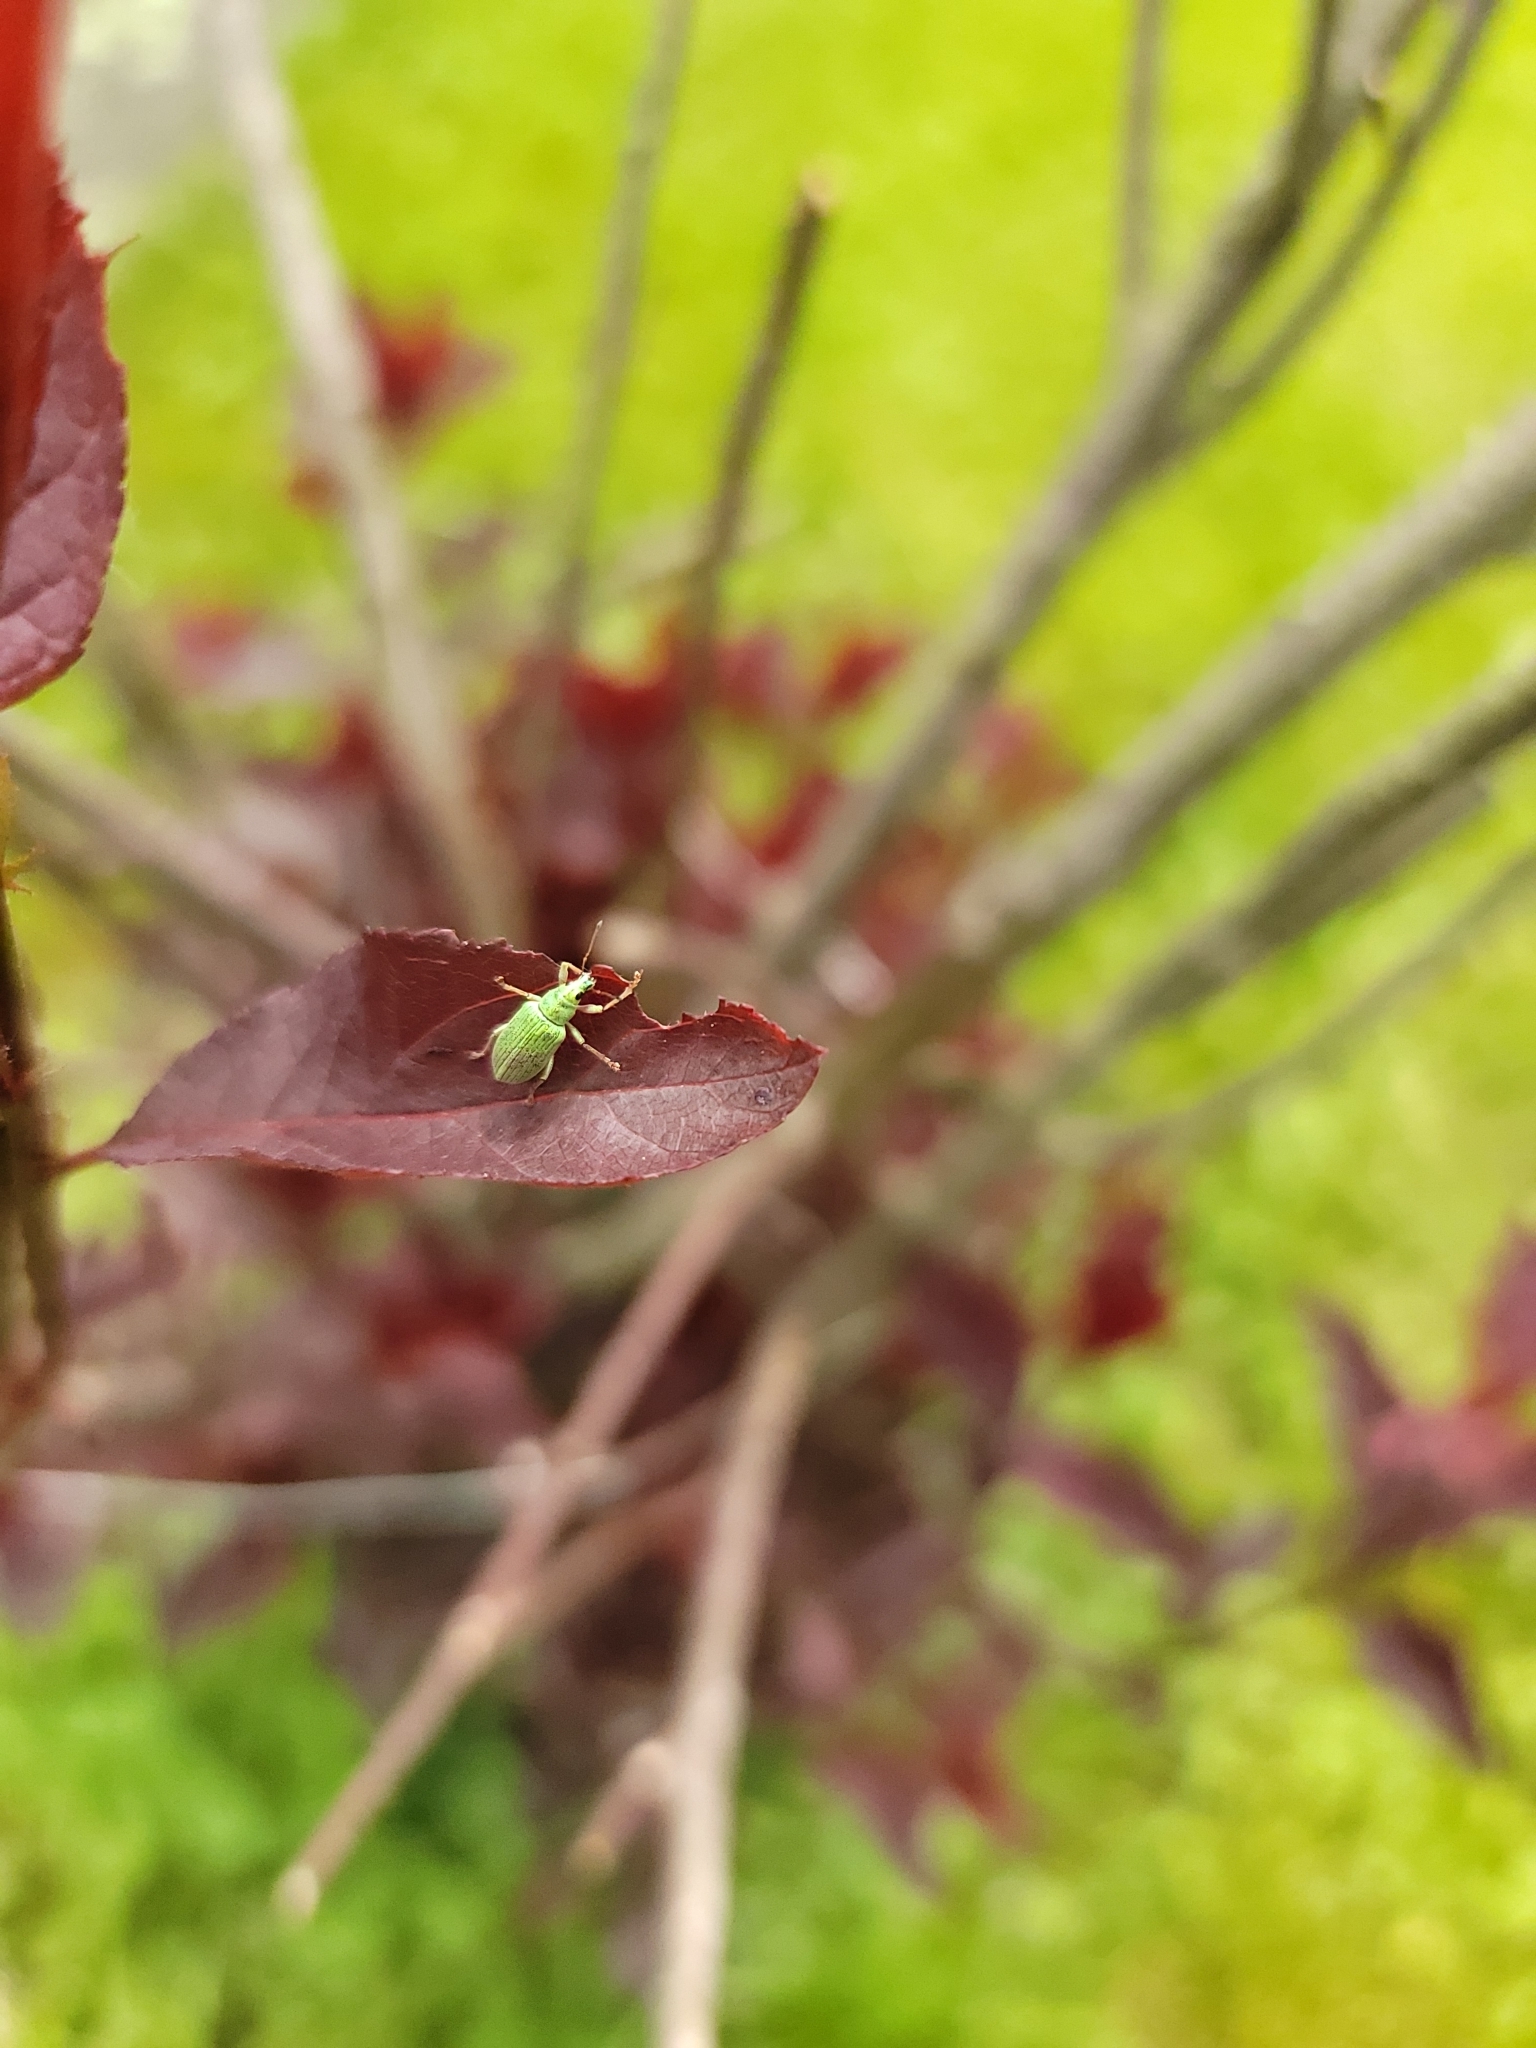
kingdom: Animalia
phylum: Arthropoda
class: Insecta
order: Coleoptera
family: Curculionidae
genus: Polydrusus
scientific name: Polydrusus formosus
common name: Weevil
